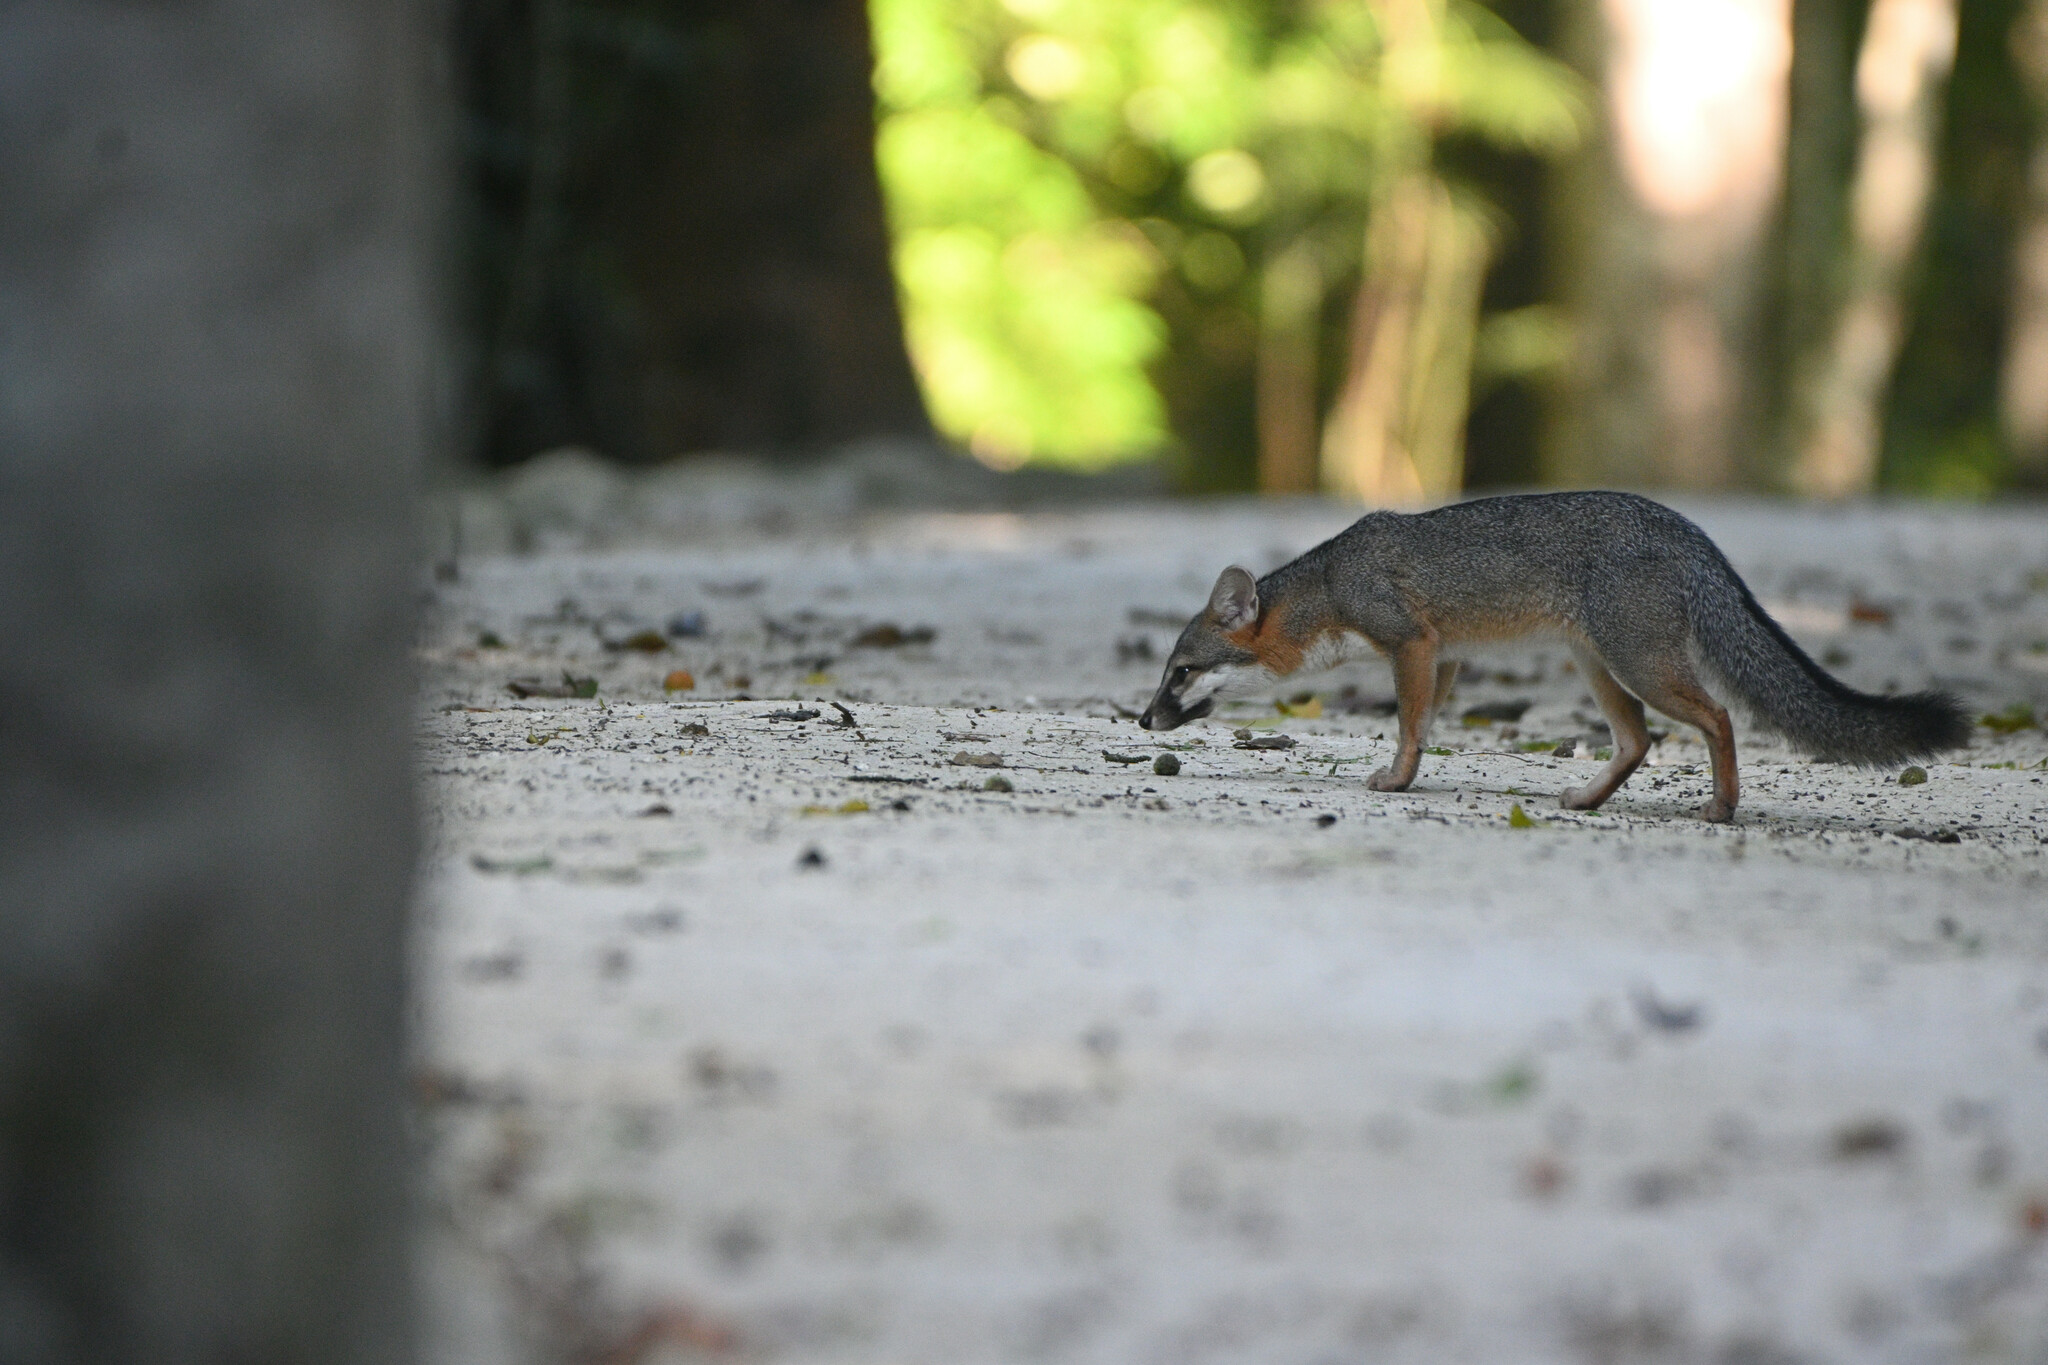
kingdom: Animalia
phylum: Chordata
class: Mammalia
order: Carnivora
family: Canidae
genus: Urocyon
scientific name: Urocyon cinereoargenteus
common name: Gray fox
